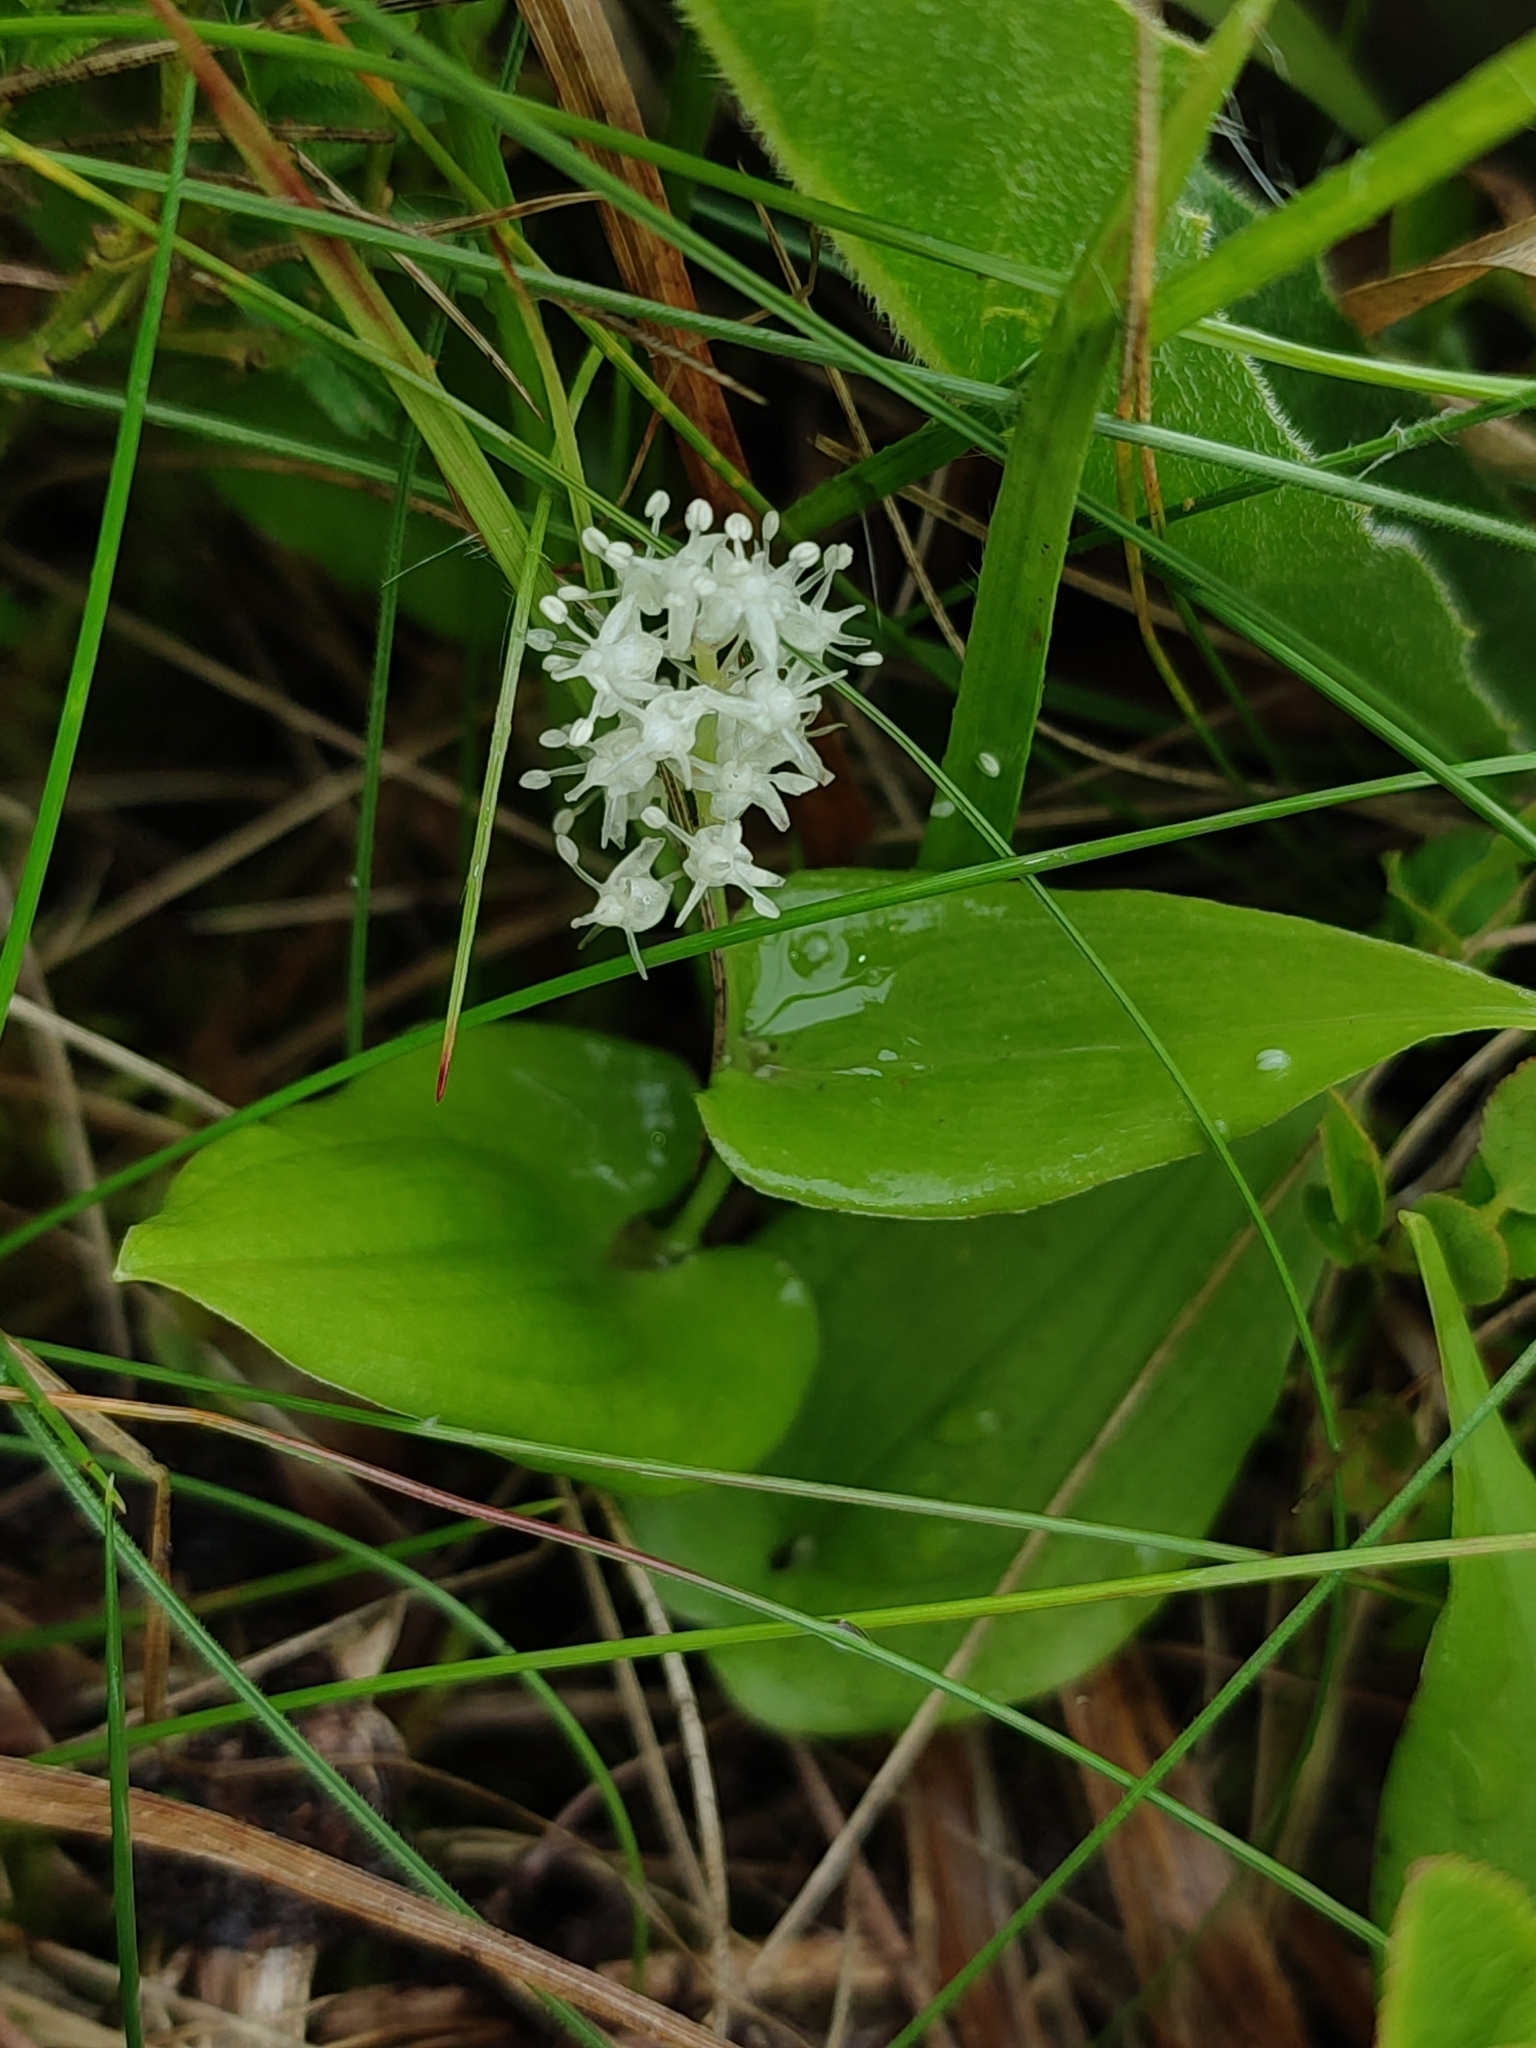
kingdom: Plantae
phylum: Tracheophyta
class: Liliopsida
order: Asparagales
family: Asparagaceae
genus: Maianthemum
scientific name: Maianthemum bifolium
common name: May lily
